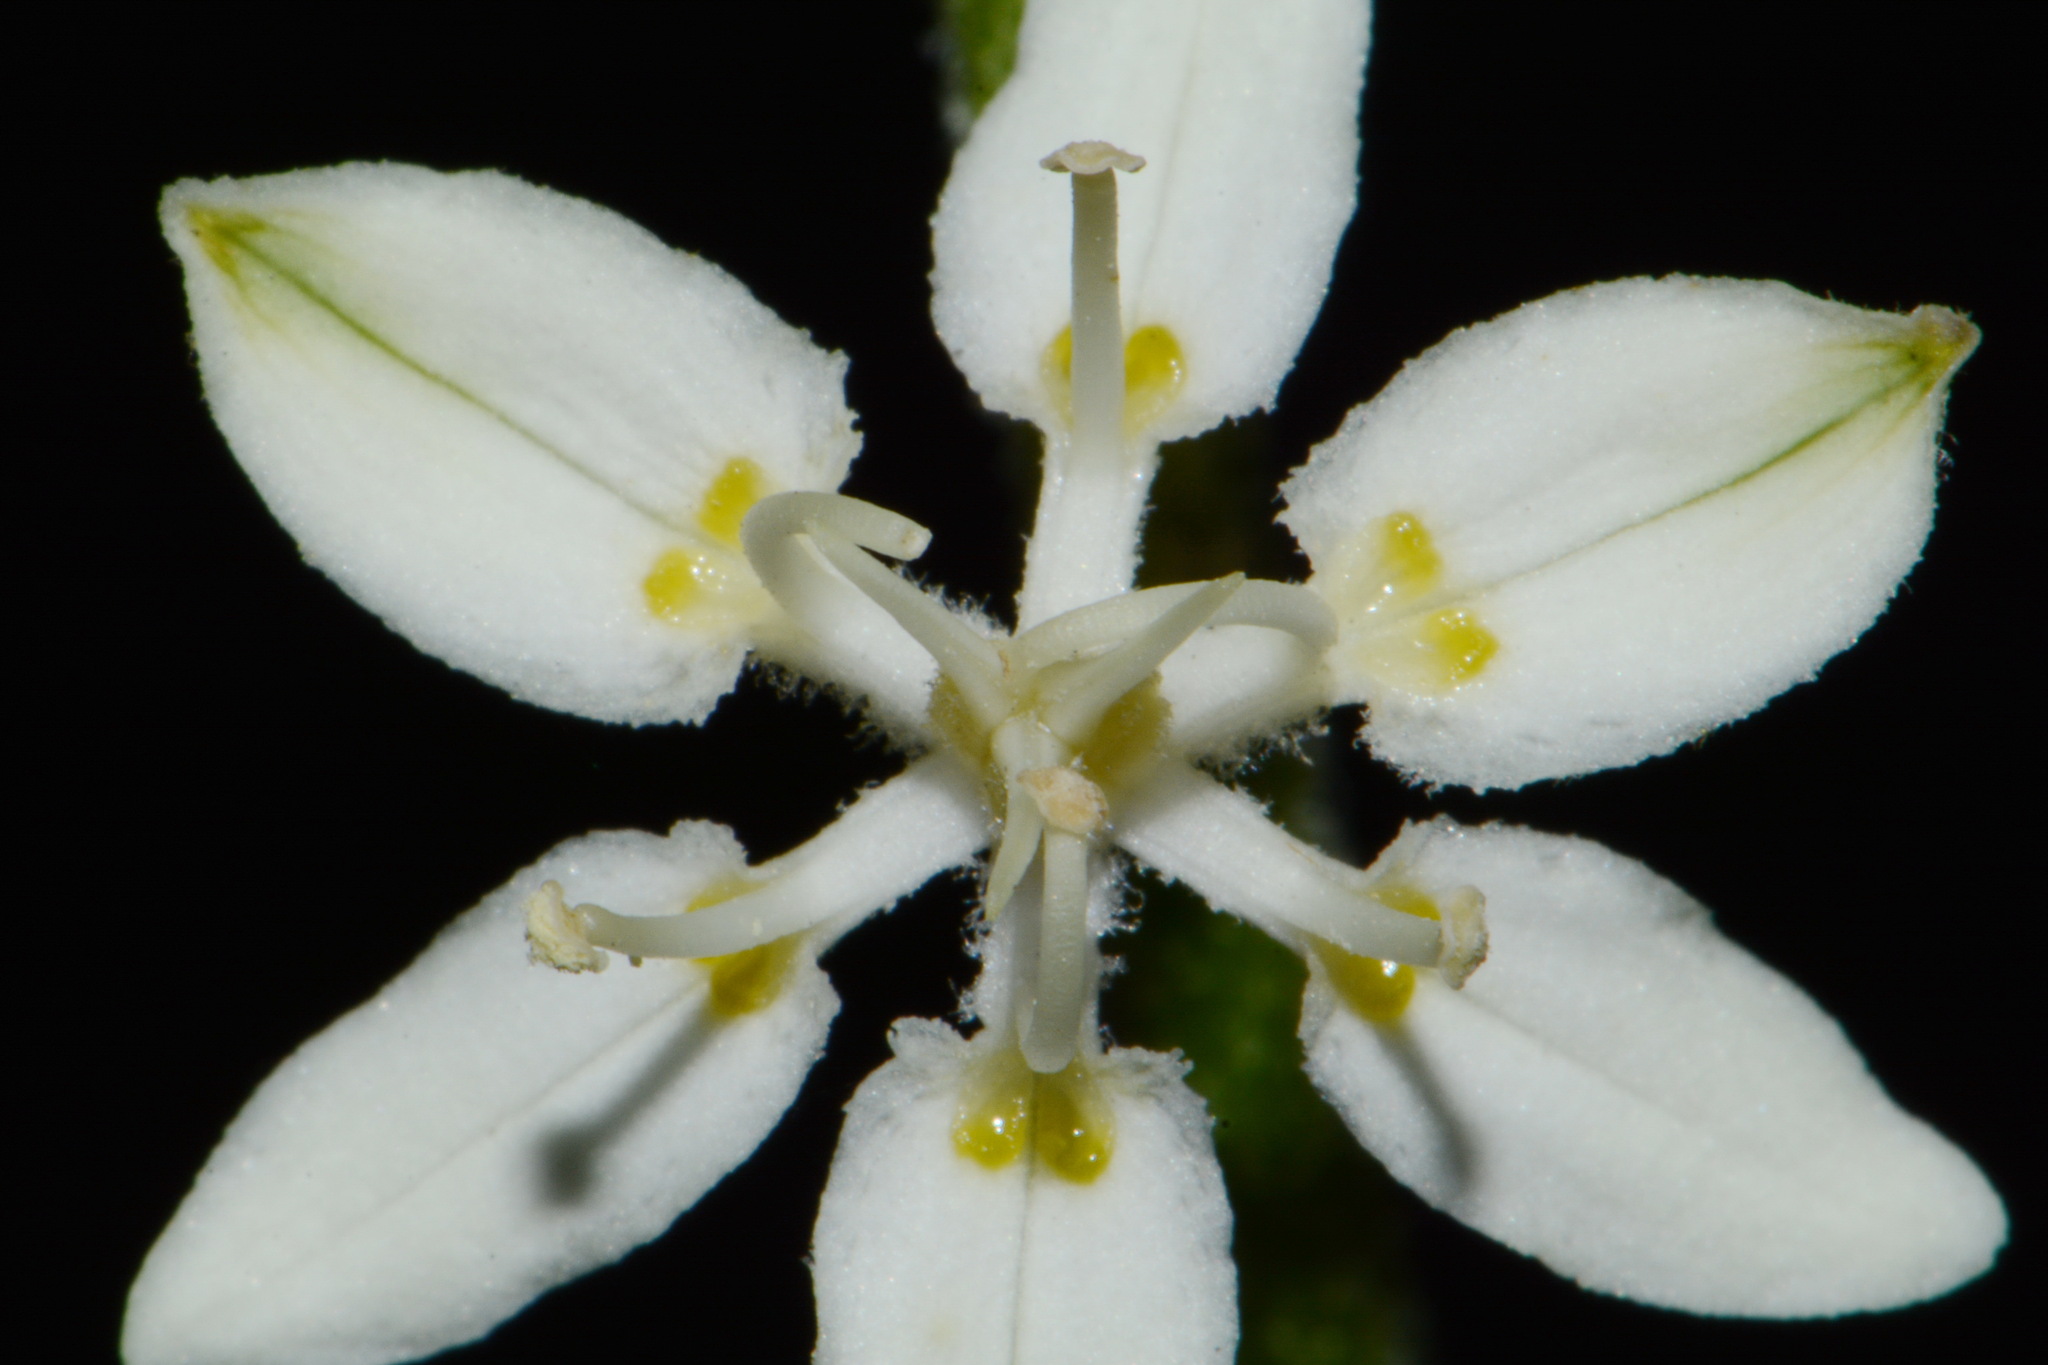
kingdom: Plantae
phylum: Tracheophyta
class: Liliopsida
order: Liliales
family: Melanthiaceae
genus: Melanthium
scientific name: Melanthium virginicum
